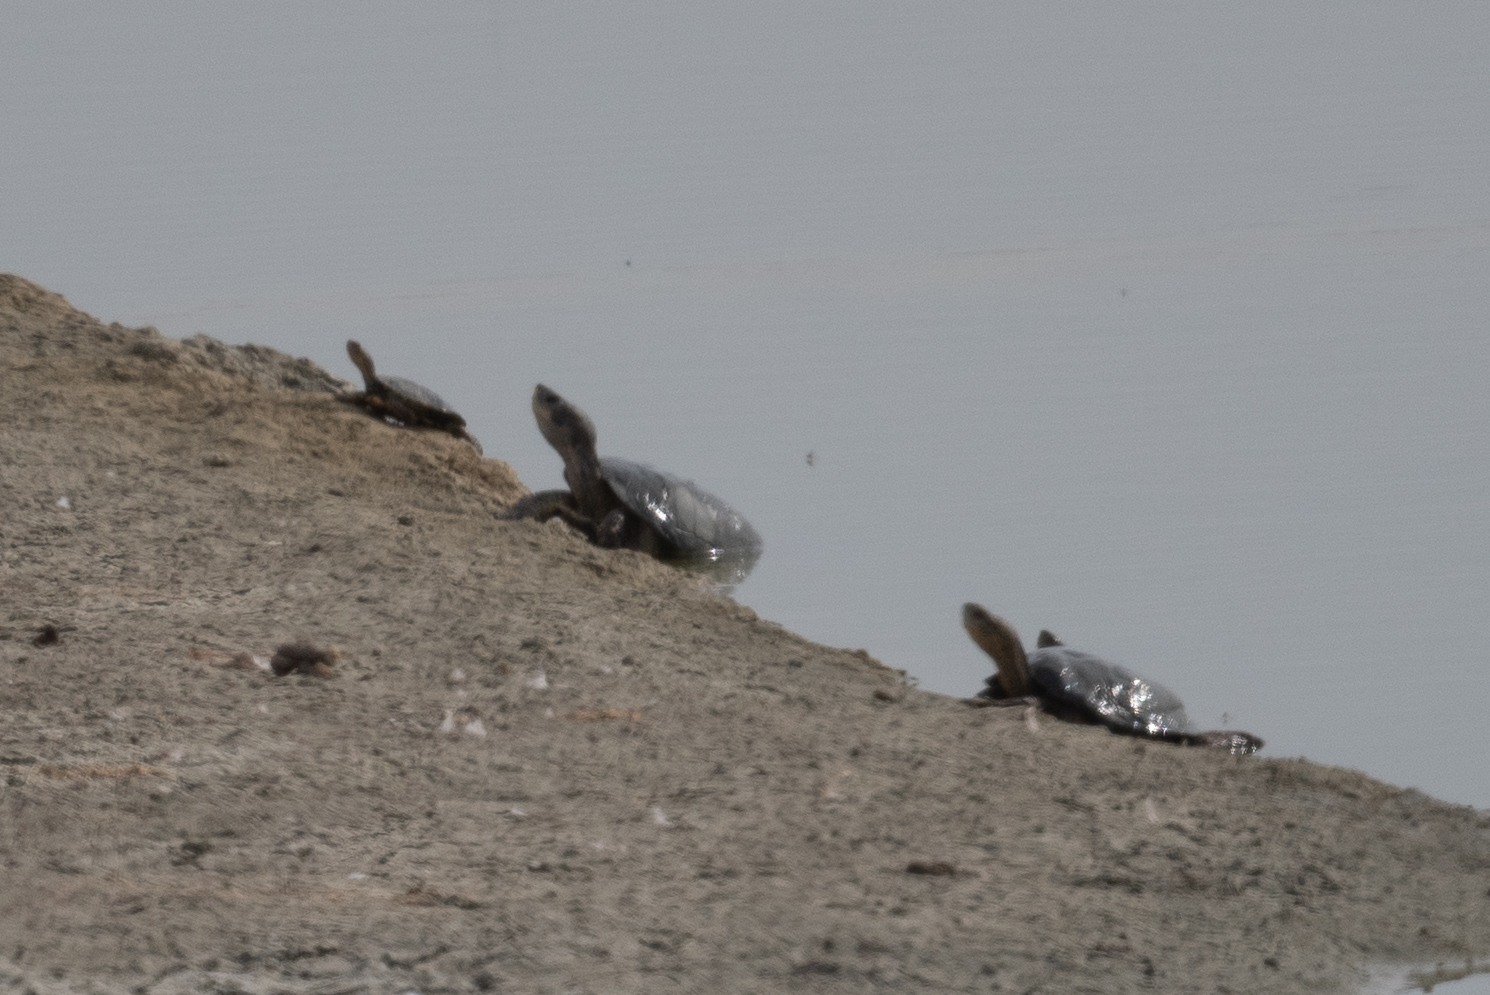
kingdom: Animalia
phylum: Chordata
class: Testudines
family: Emydidae
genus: Actinemys
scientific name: Actinemys marmorata
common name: Western pond turtle
